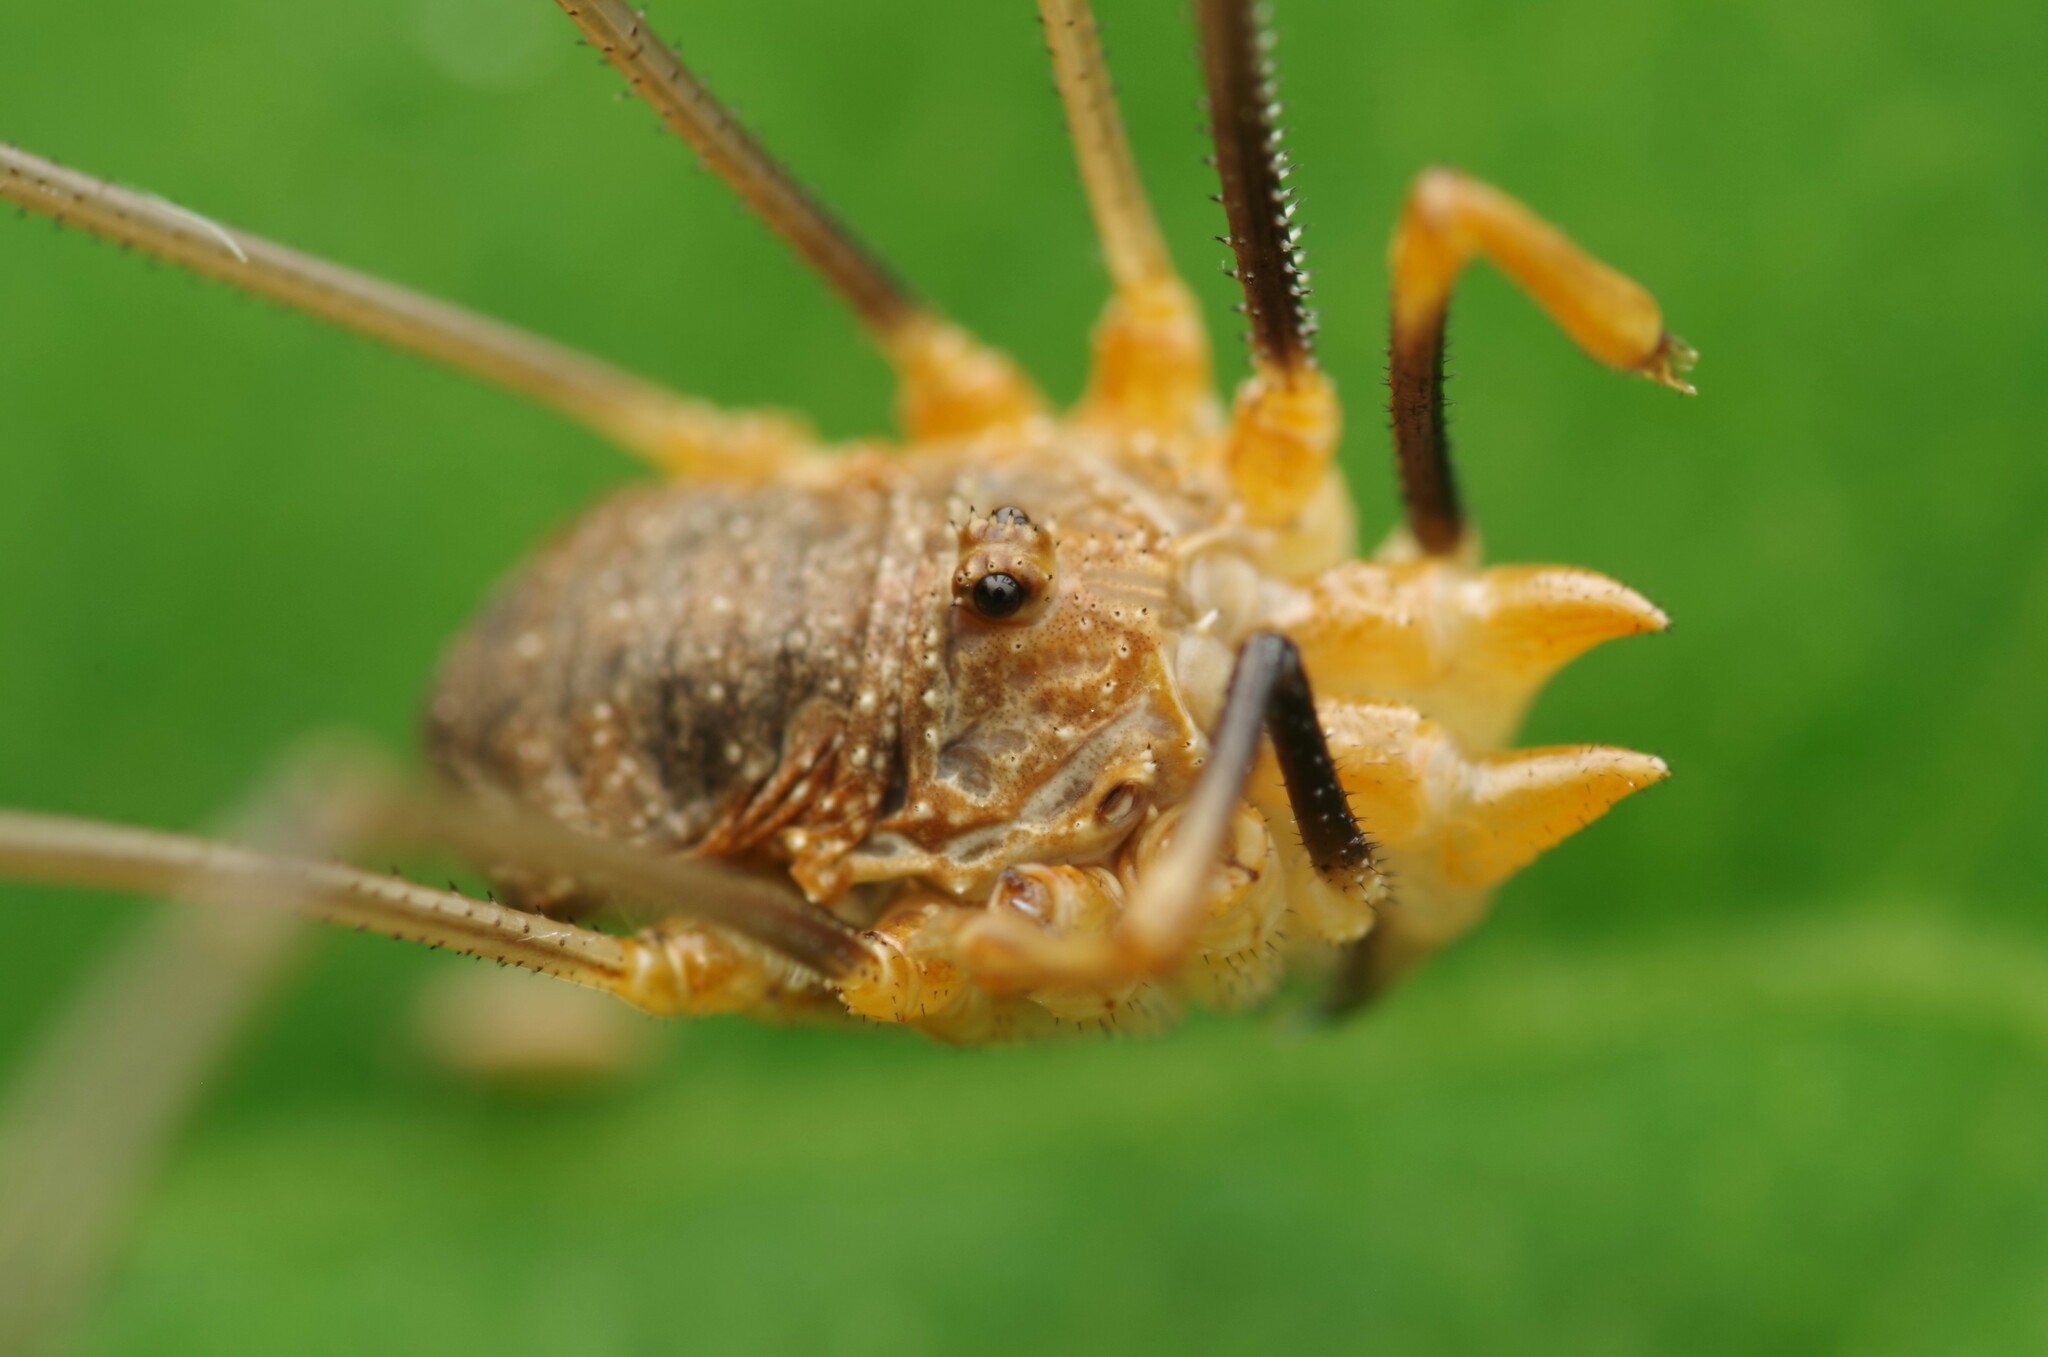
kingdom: Animalia
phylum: Arthropoda
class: Arachnida
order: Opiliones
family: Phalangiidae
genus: Phalangium
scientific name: Phalangium opilio
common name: Daddy longleg
